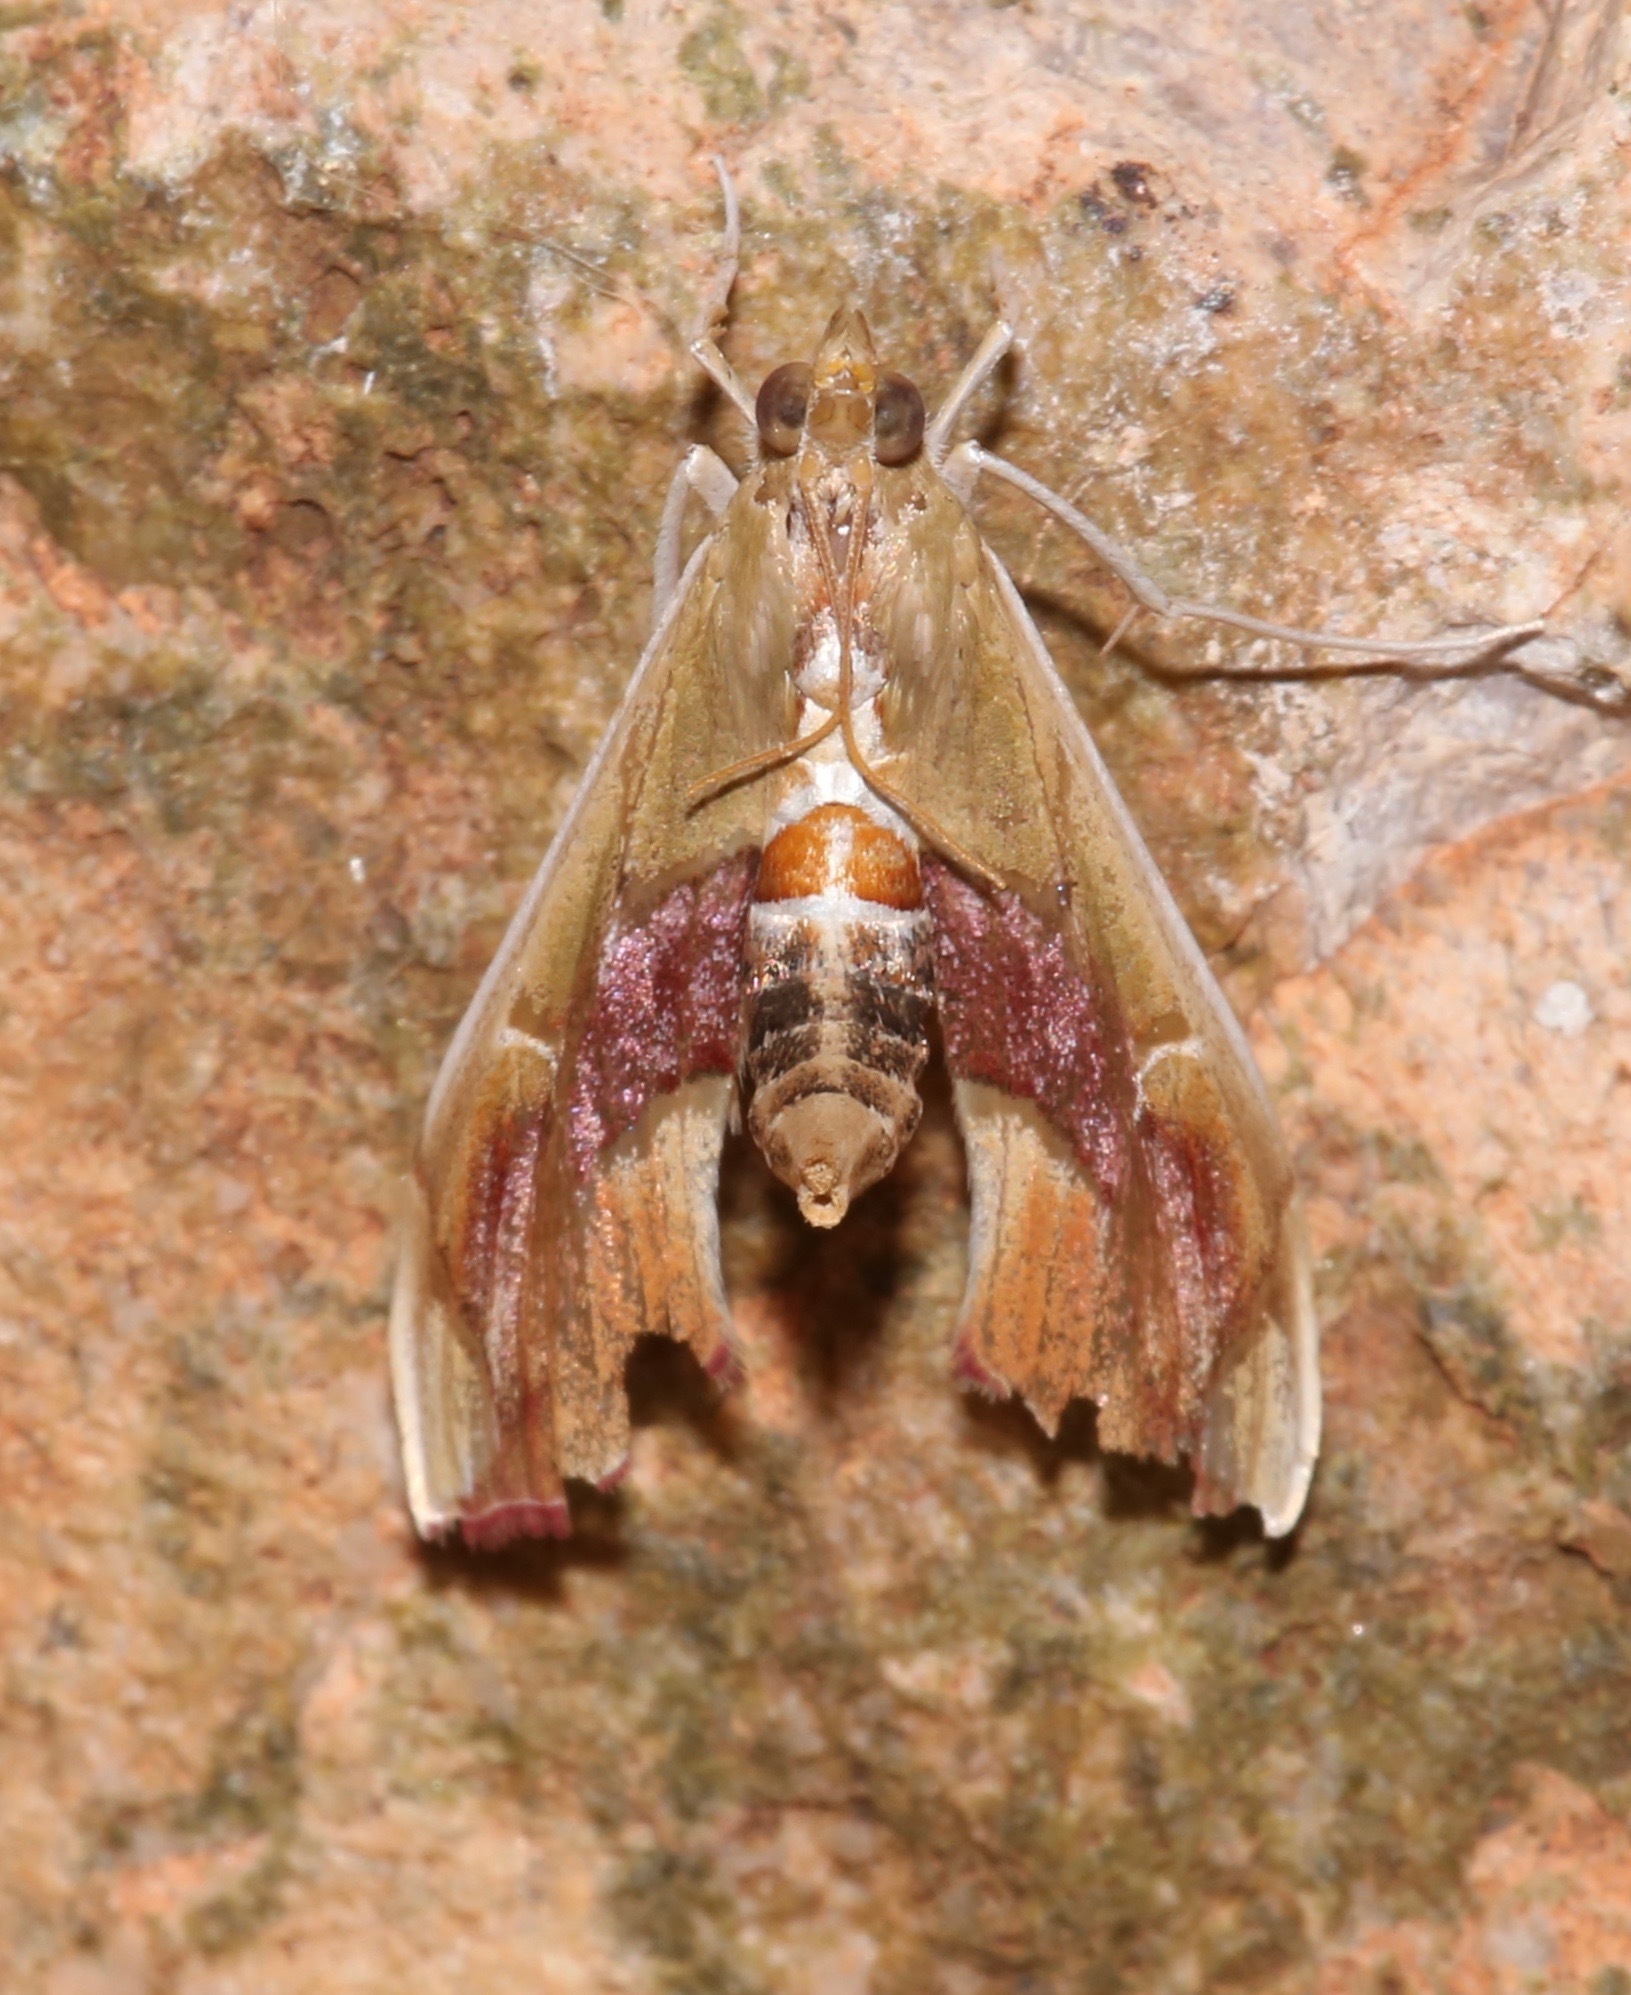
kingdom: Animalia
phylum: Arthropoda
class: Insecta
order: Lepidoptera
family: Crambidae
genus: Agathodes
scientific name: Agathodes monstralis
